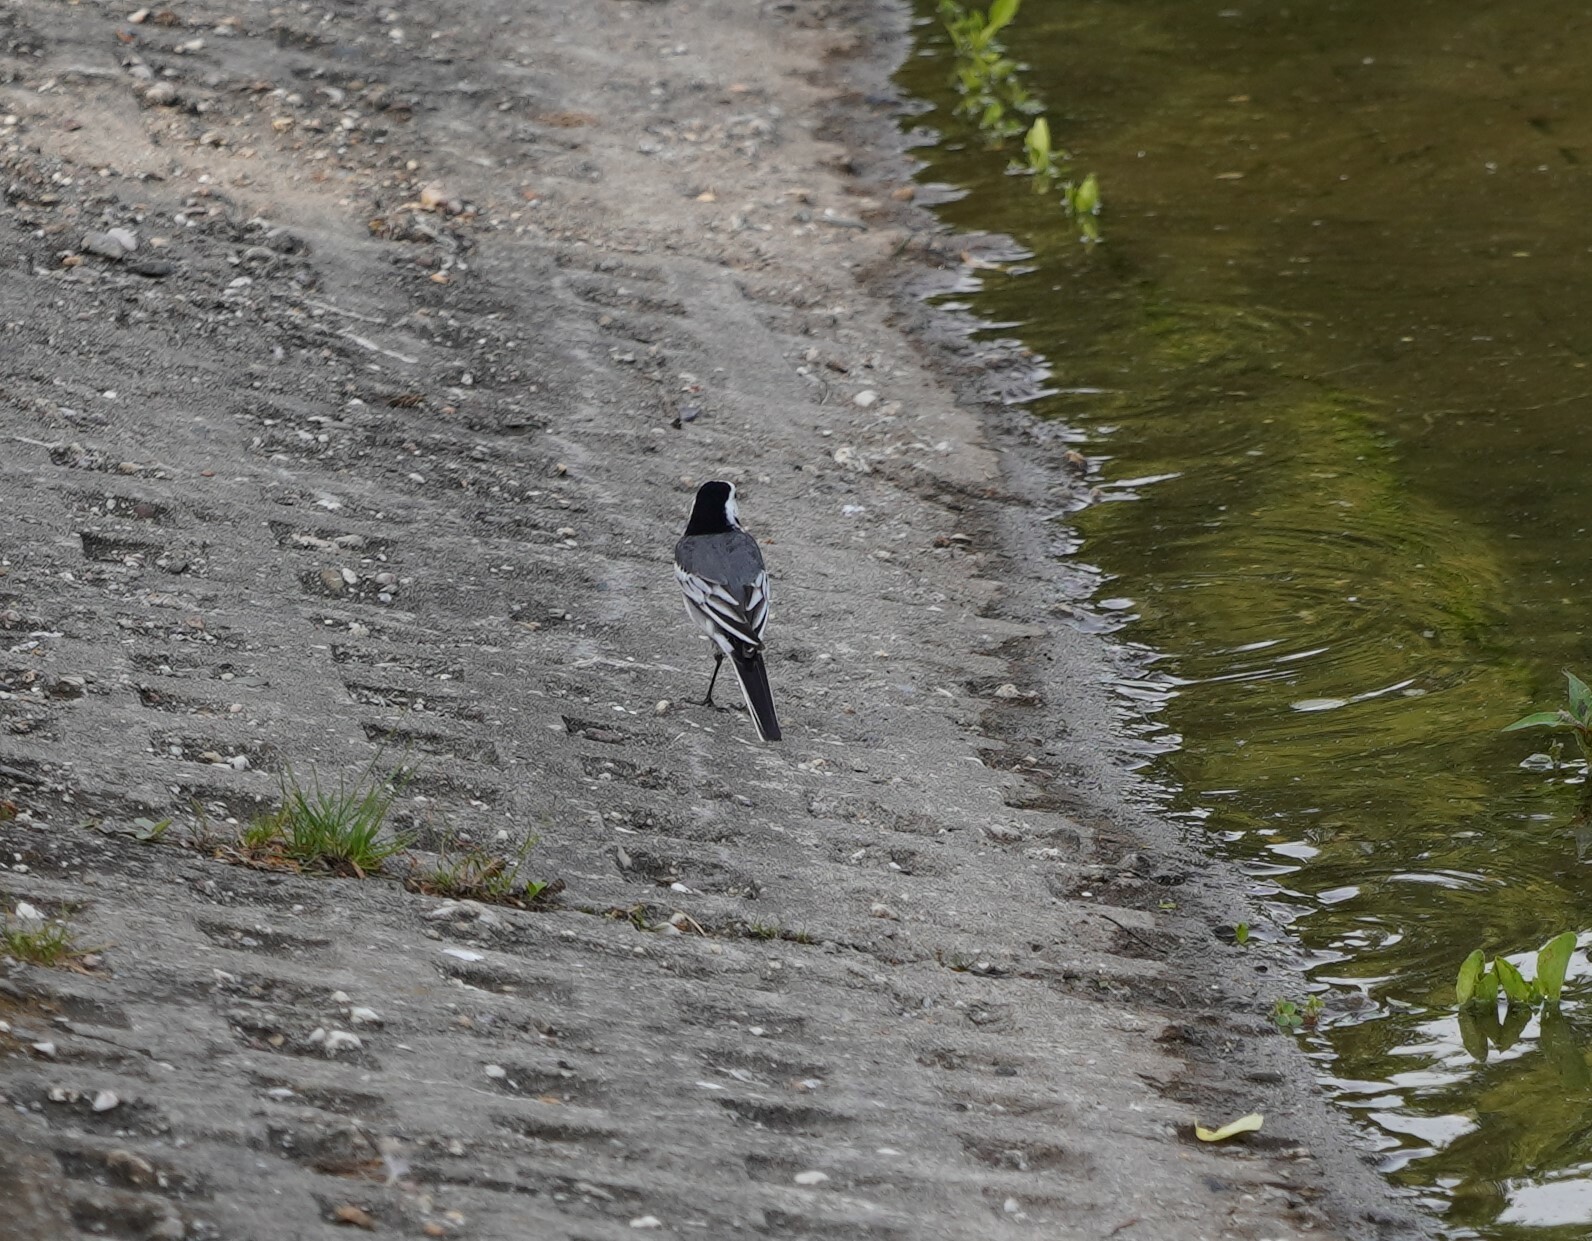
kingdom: Animalia
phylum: Chordata
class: Aves
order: Passeriformes
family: Motacillidae
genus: Motacilla
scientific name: Motacilla alba
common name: White wagtail
